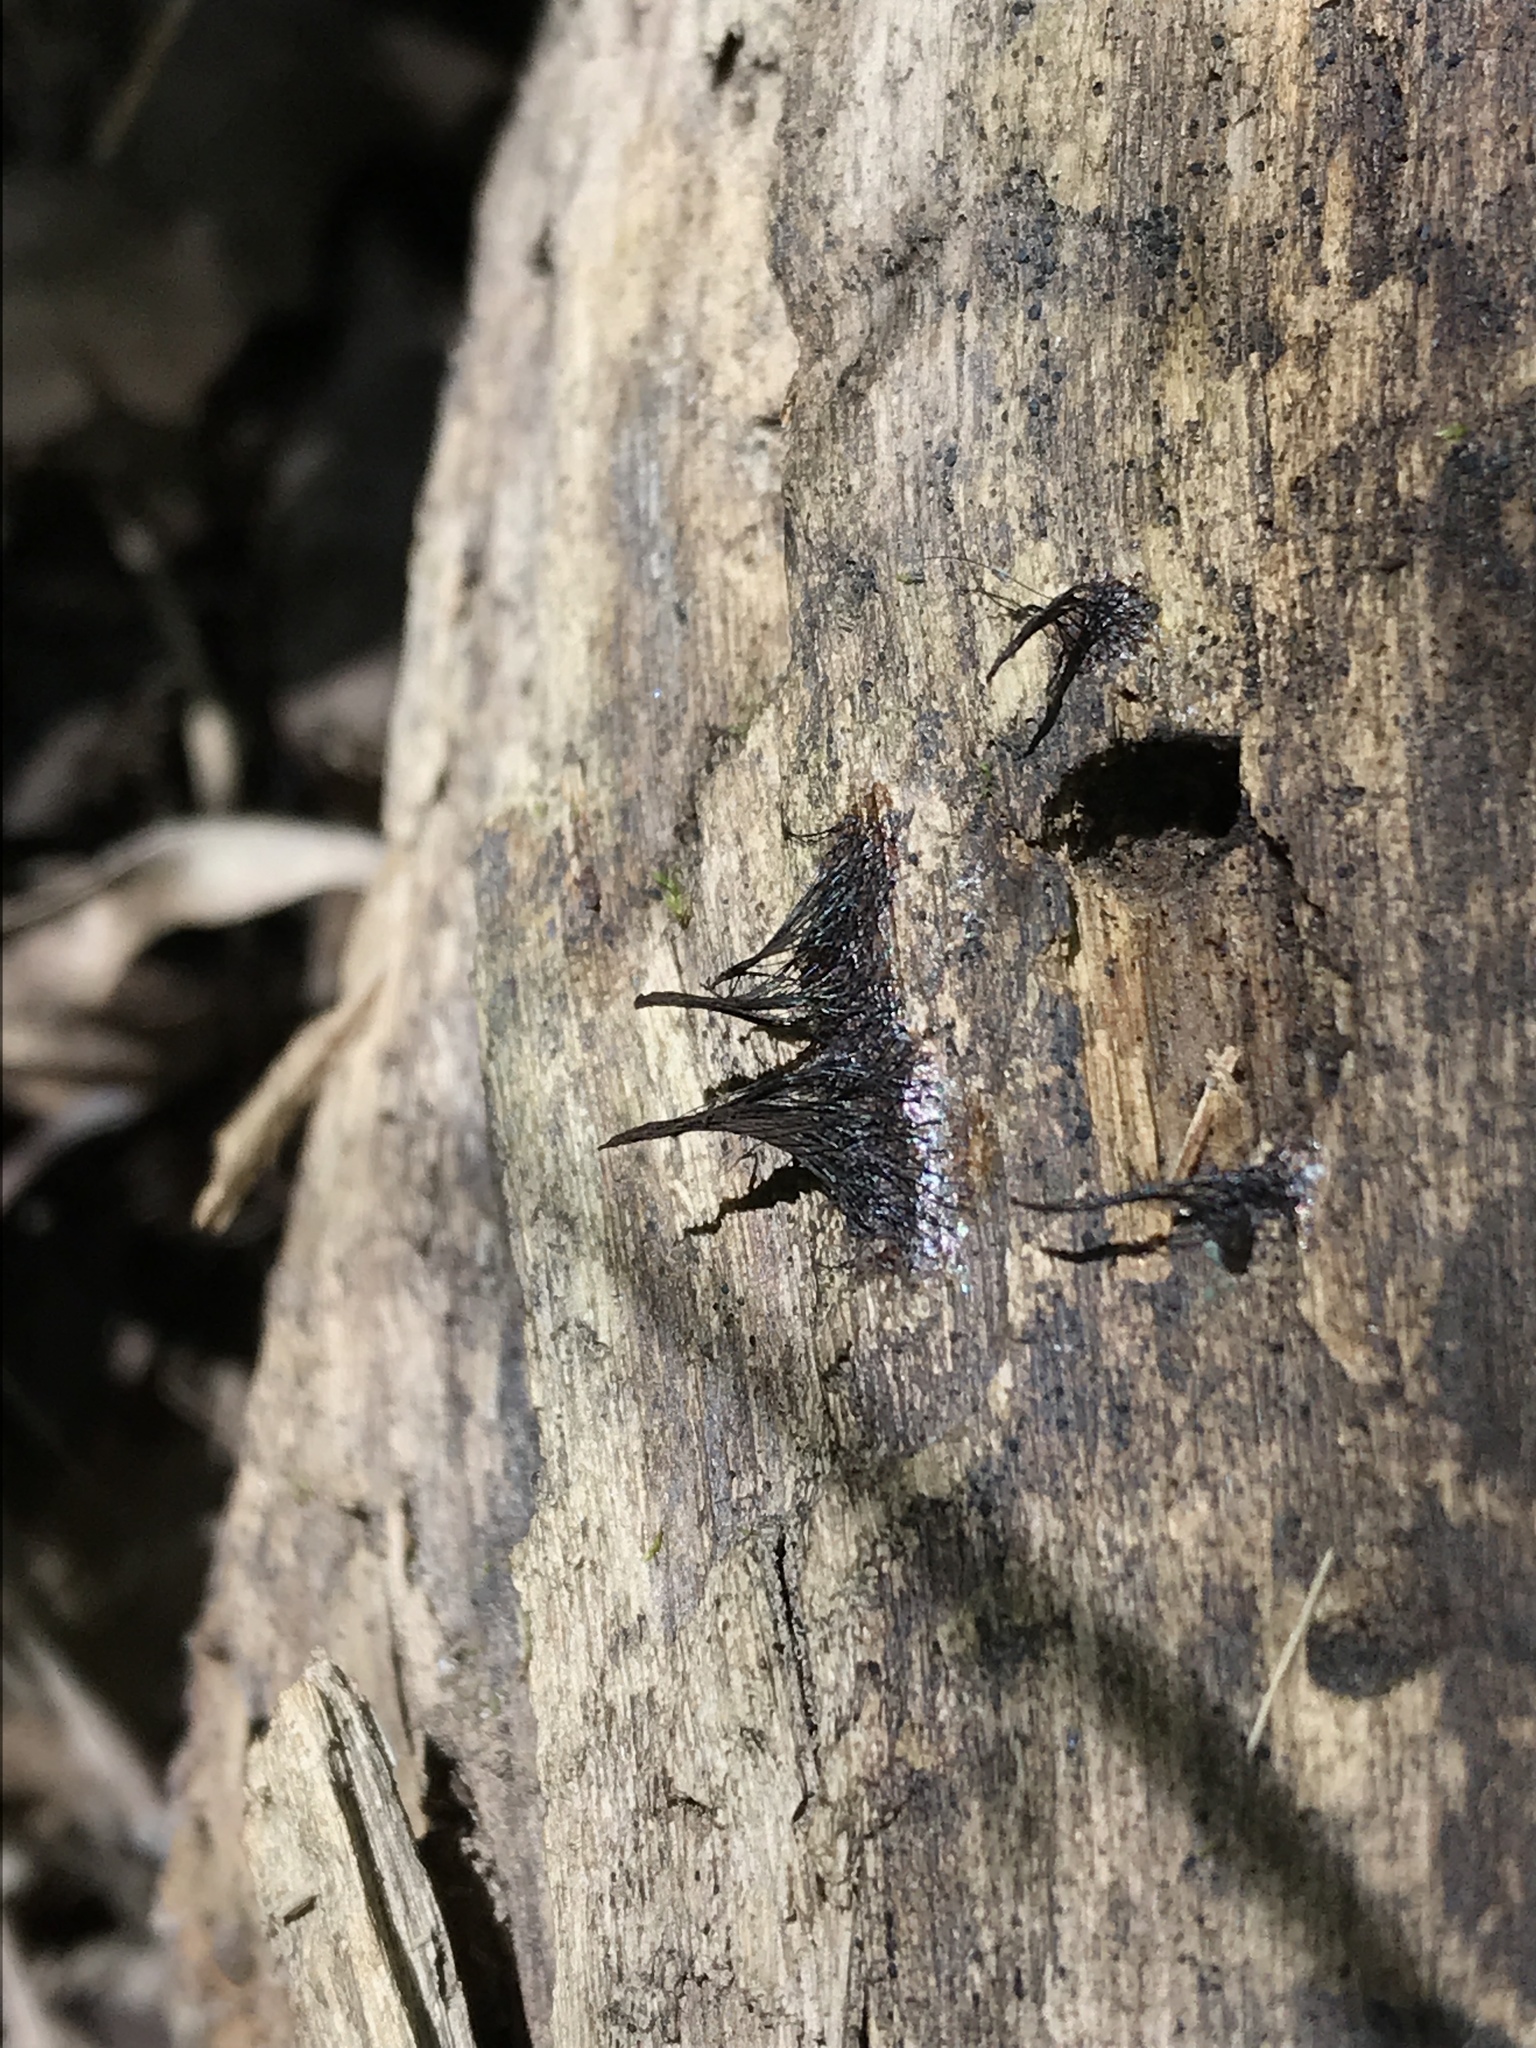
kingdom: Protozoa
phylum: Mycetozoa
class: Myxomycetes
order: Stemonitidales
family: Stemonitidaceae
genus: Stemonitis
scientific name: Stemonitis splendens
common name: Chocolate tube slime
